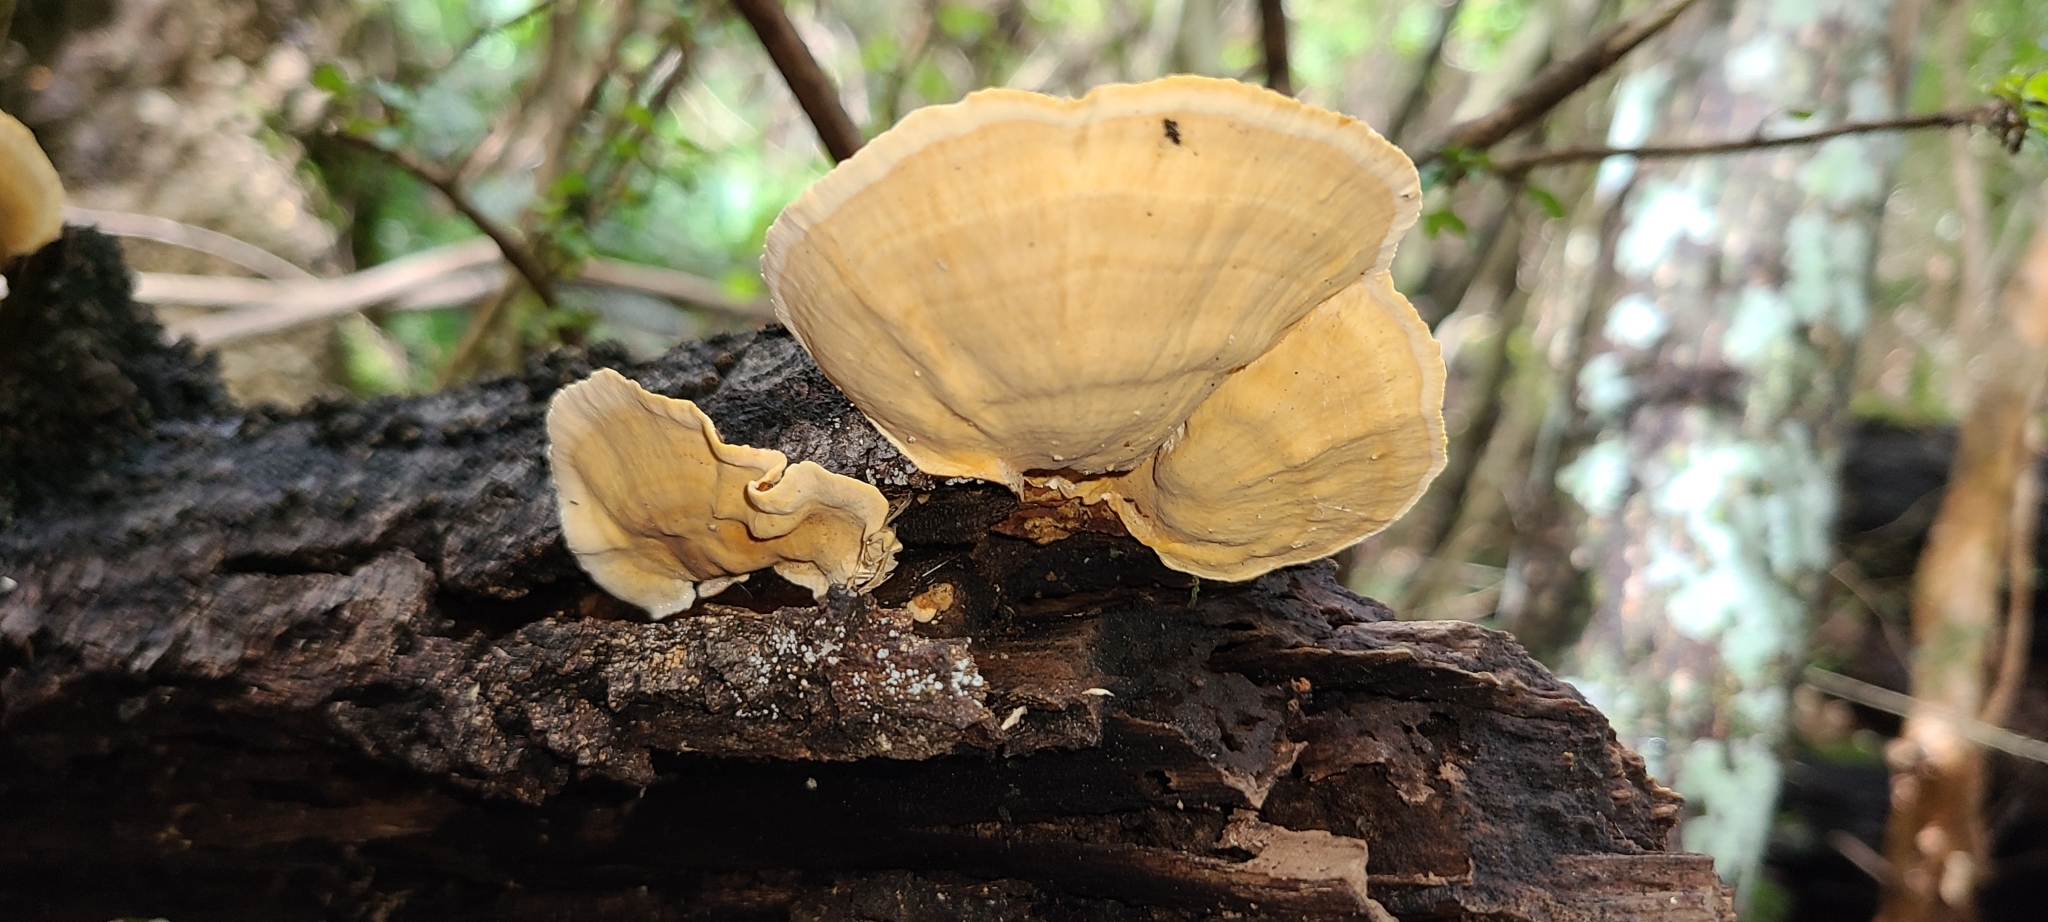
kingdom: Fungi
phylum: Basidiomycota
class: Agaricomycetes
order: Russulales
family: Stereaceae
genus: Stereum
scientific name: Stereum versicolor
